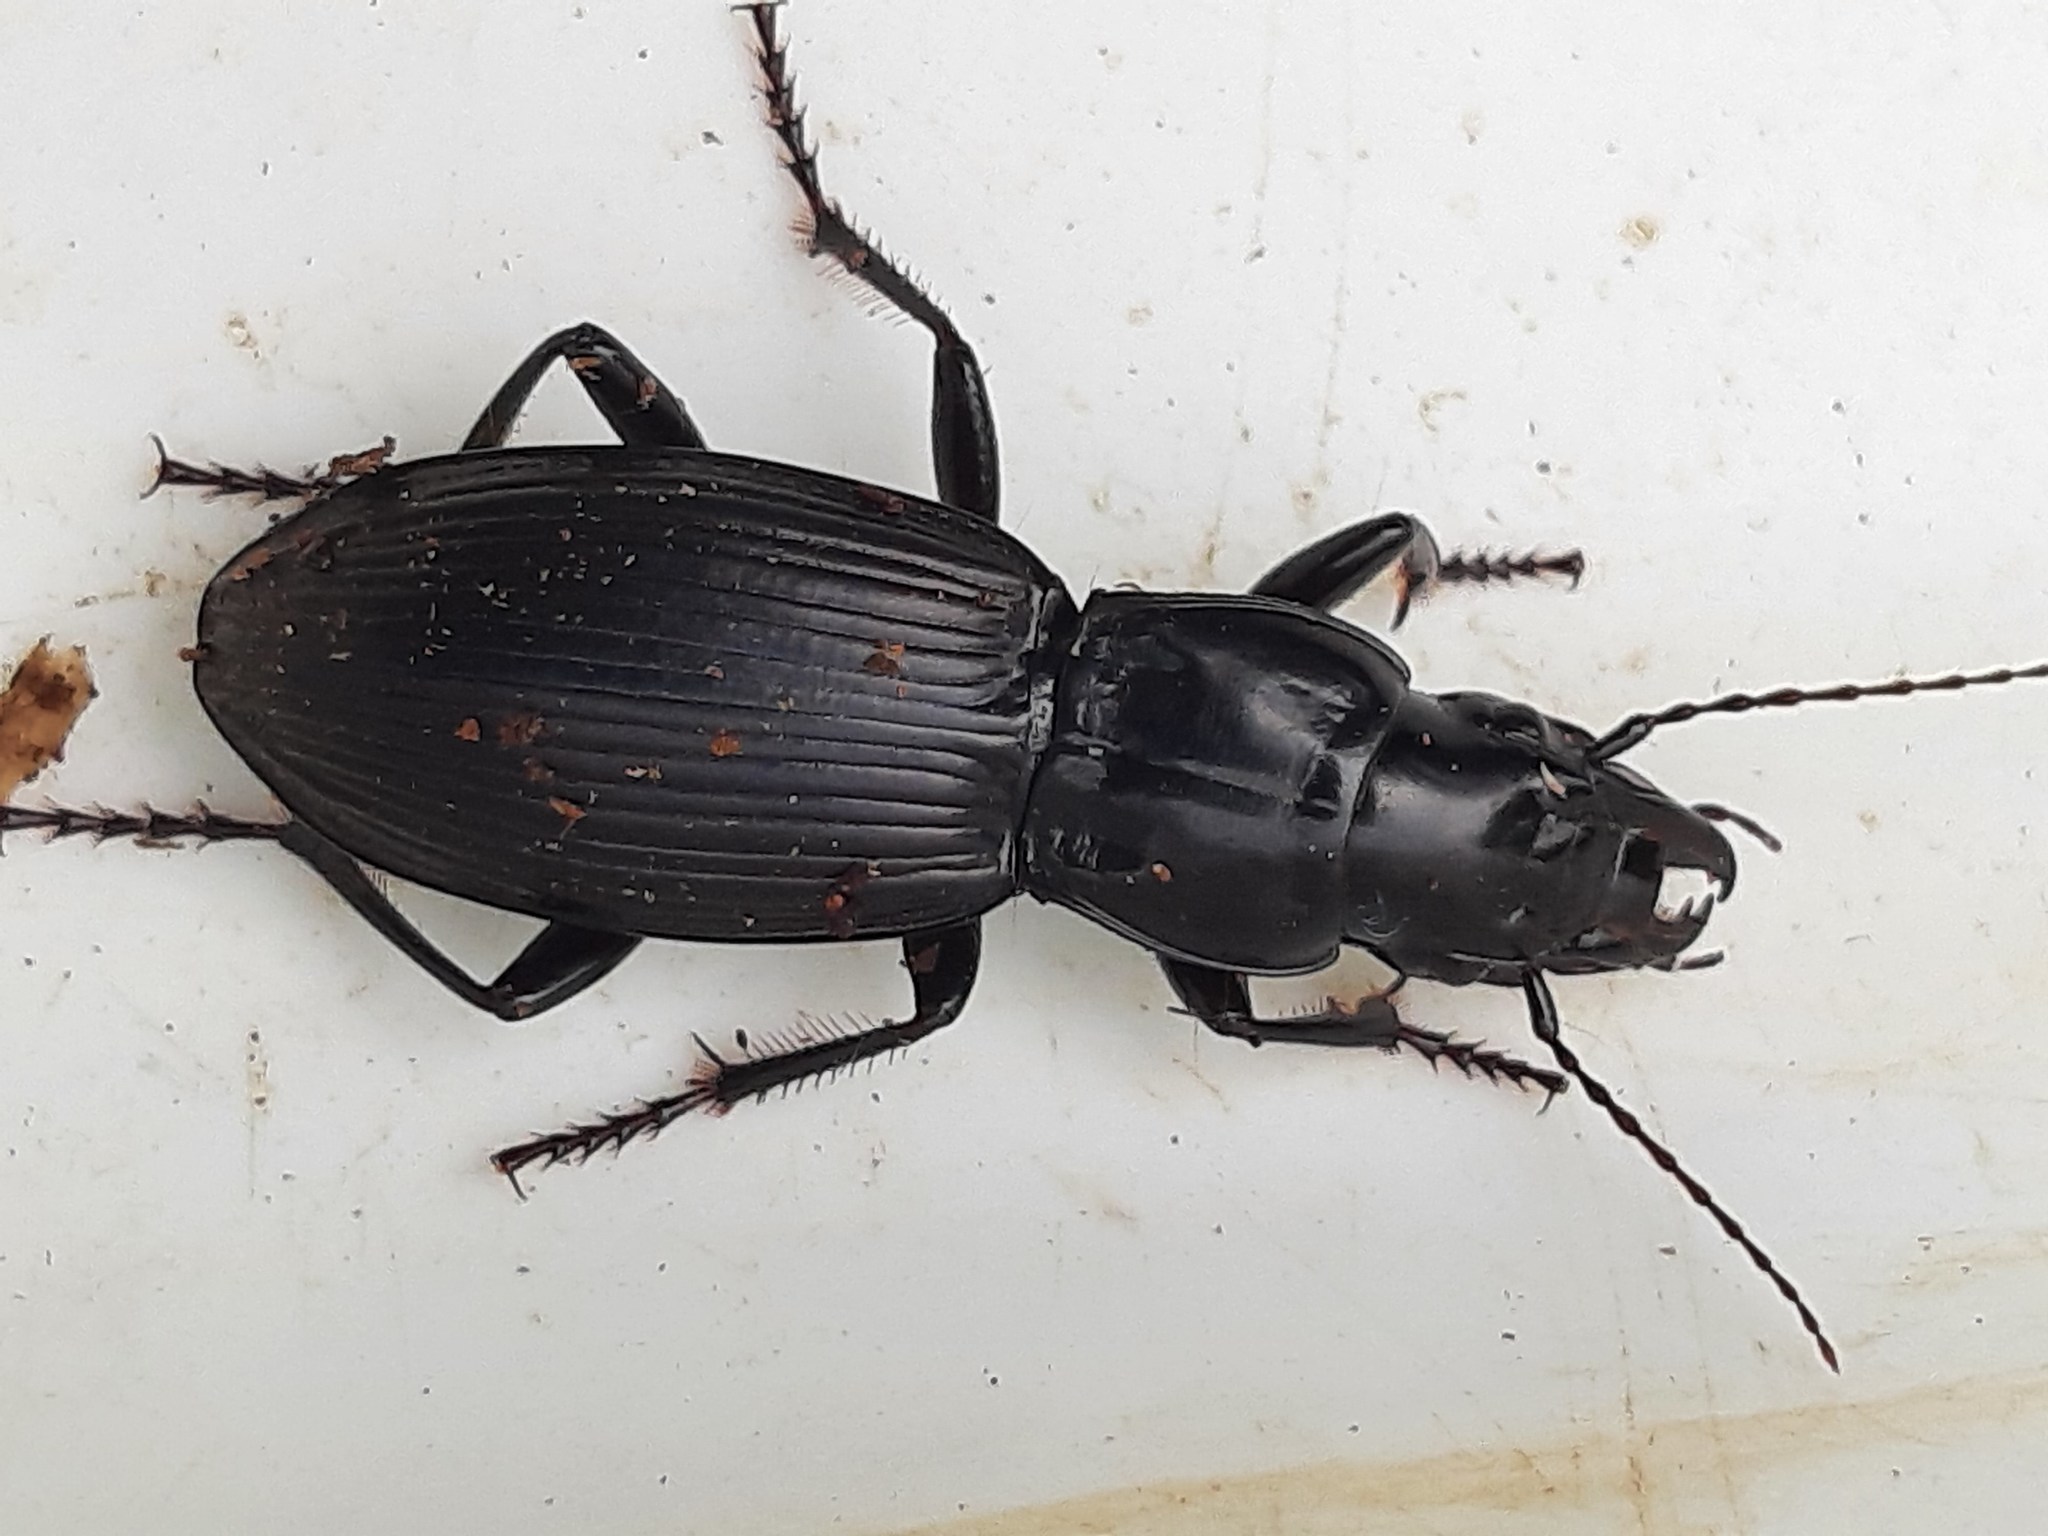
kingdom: Animalia
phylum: Arthropoda
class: Insecta
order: Coleoptera
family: Carabidae
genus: Plocamostethus
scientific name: Plocamostethus planiusculus
